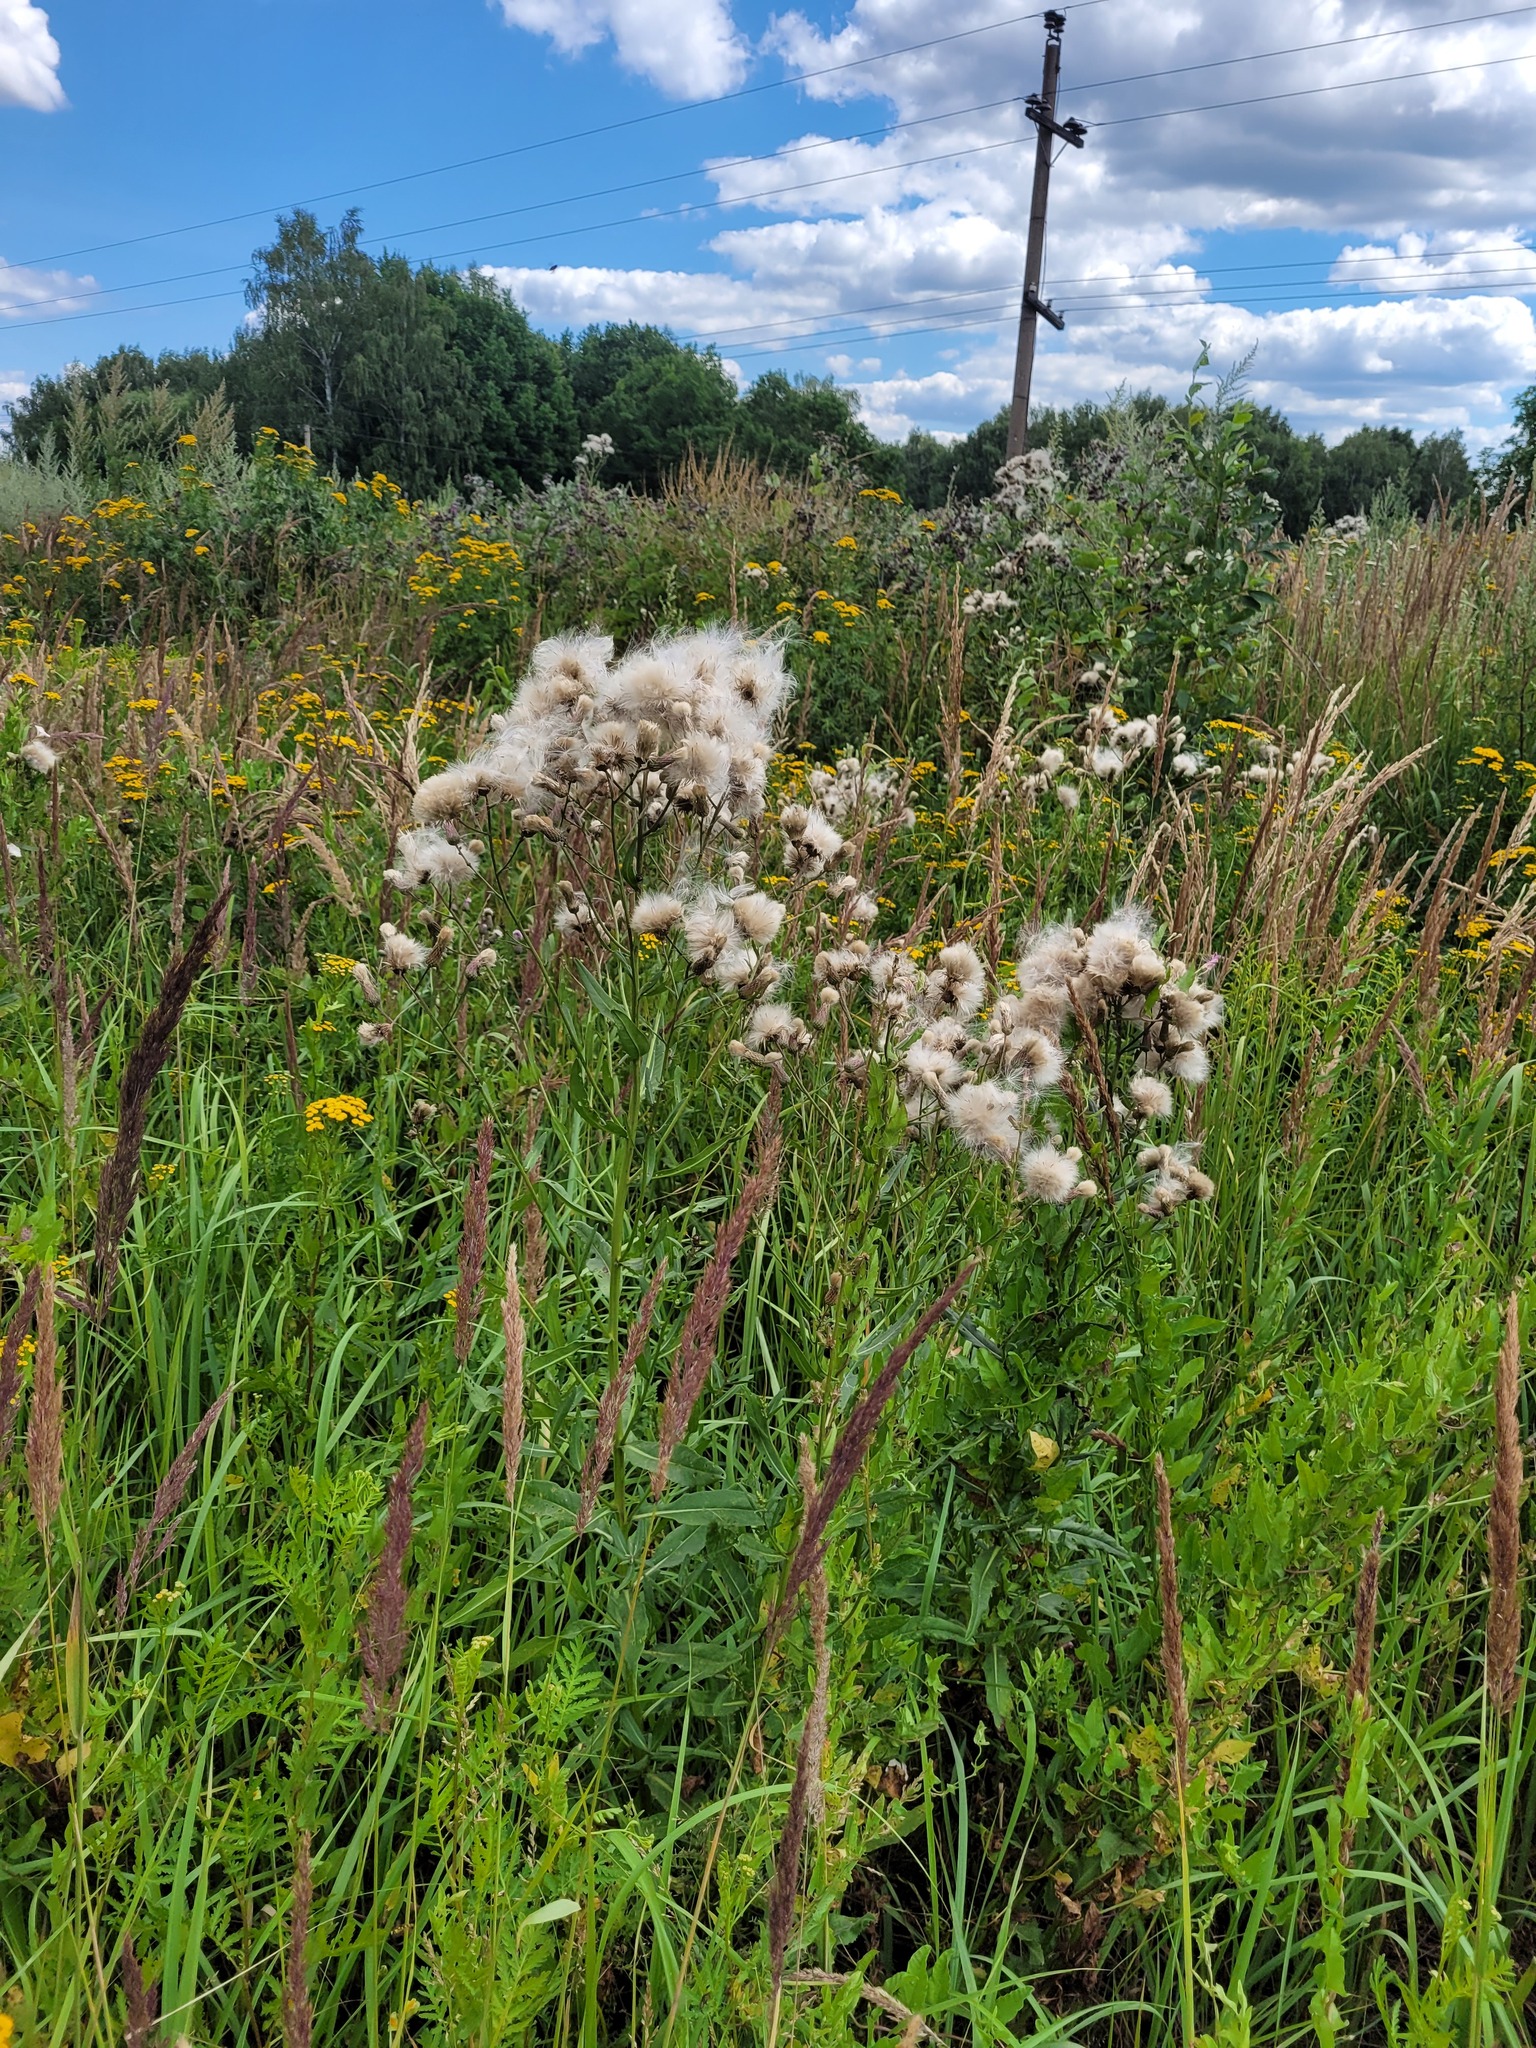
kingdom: Plantae
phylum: Tracheophyta
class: Magnoliopsida
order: Asterales
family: Asteraceae
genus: Cirsium
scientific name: Cirsium arvense
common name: Creeping thistle
